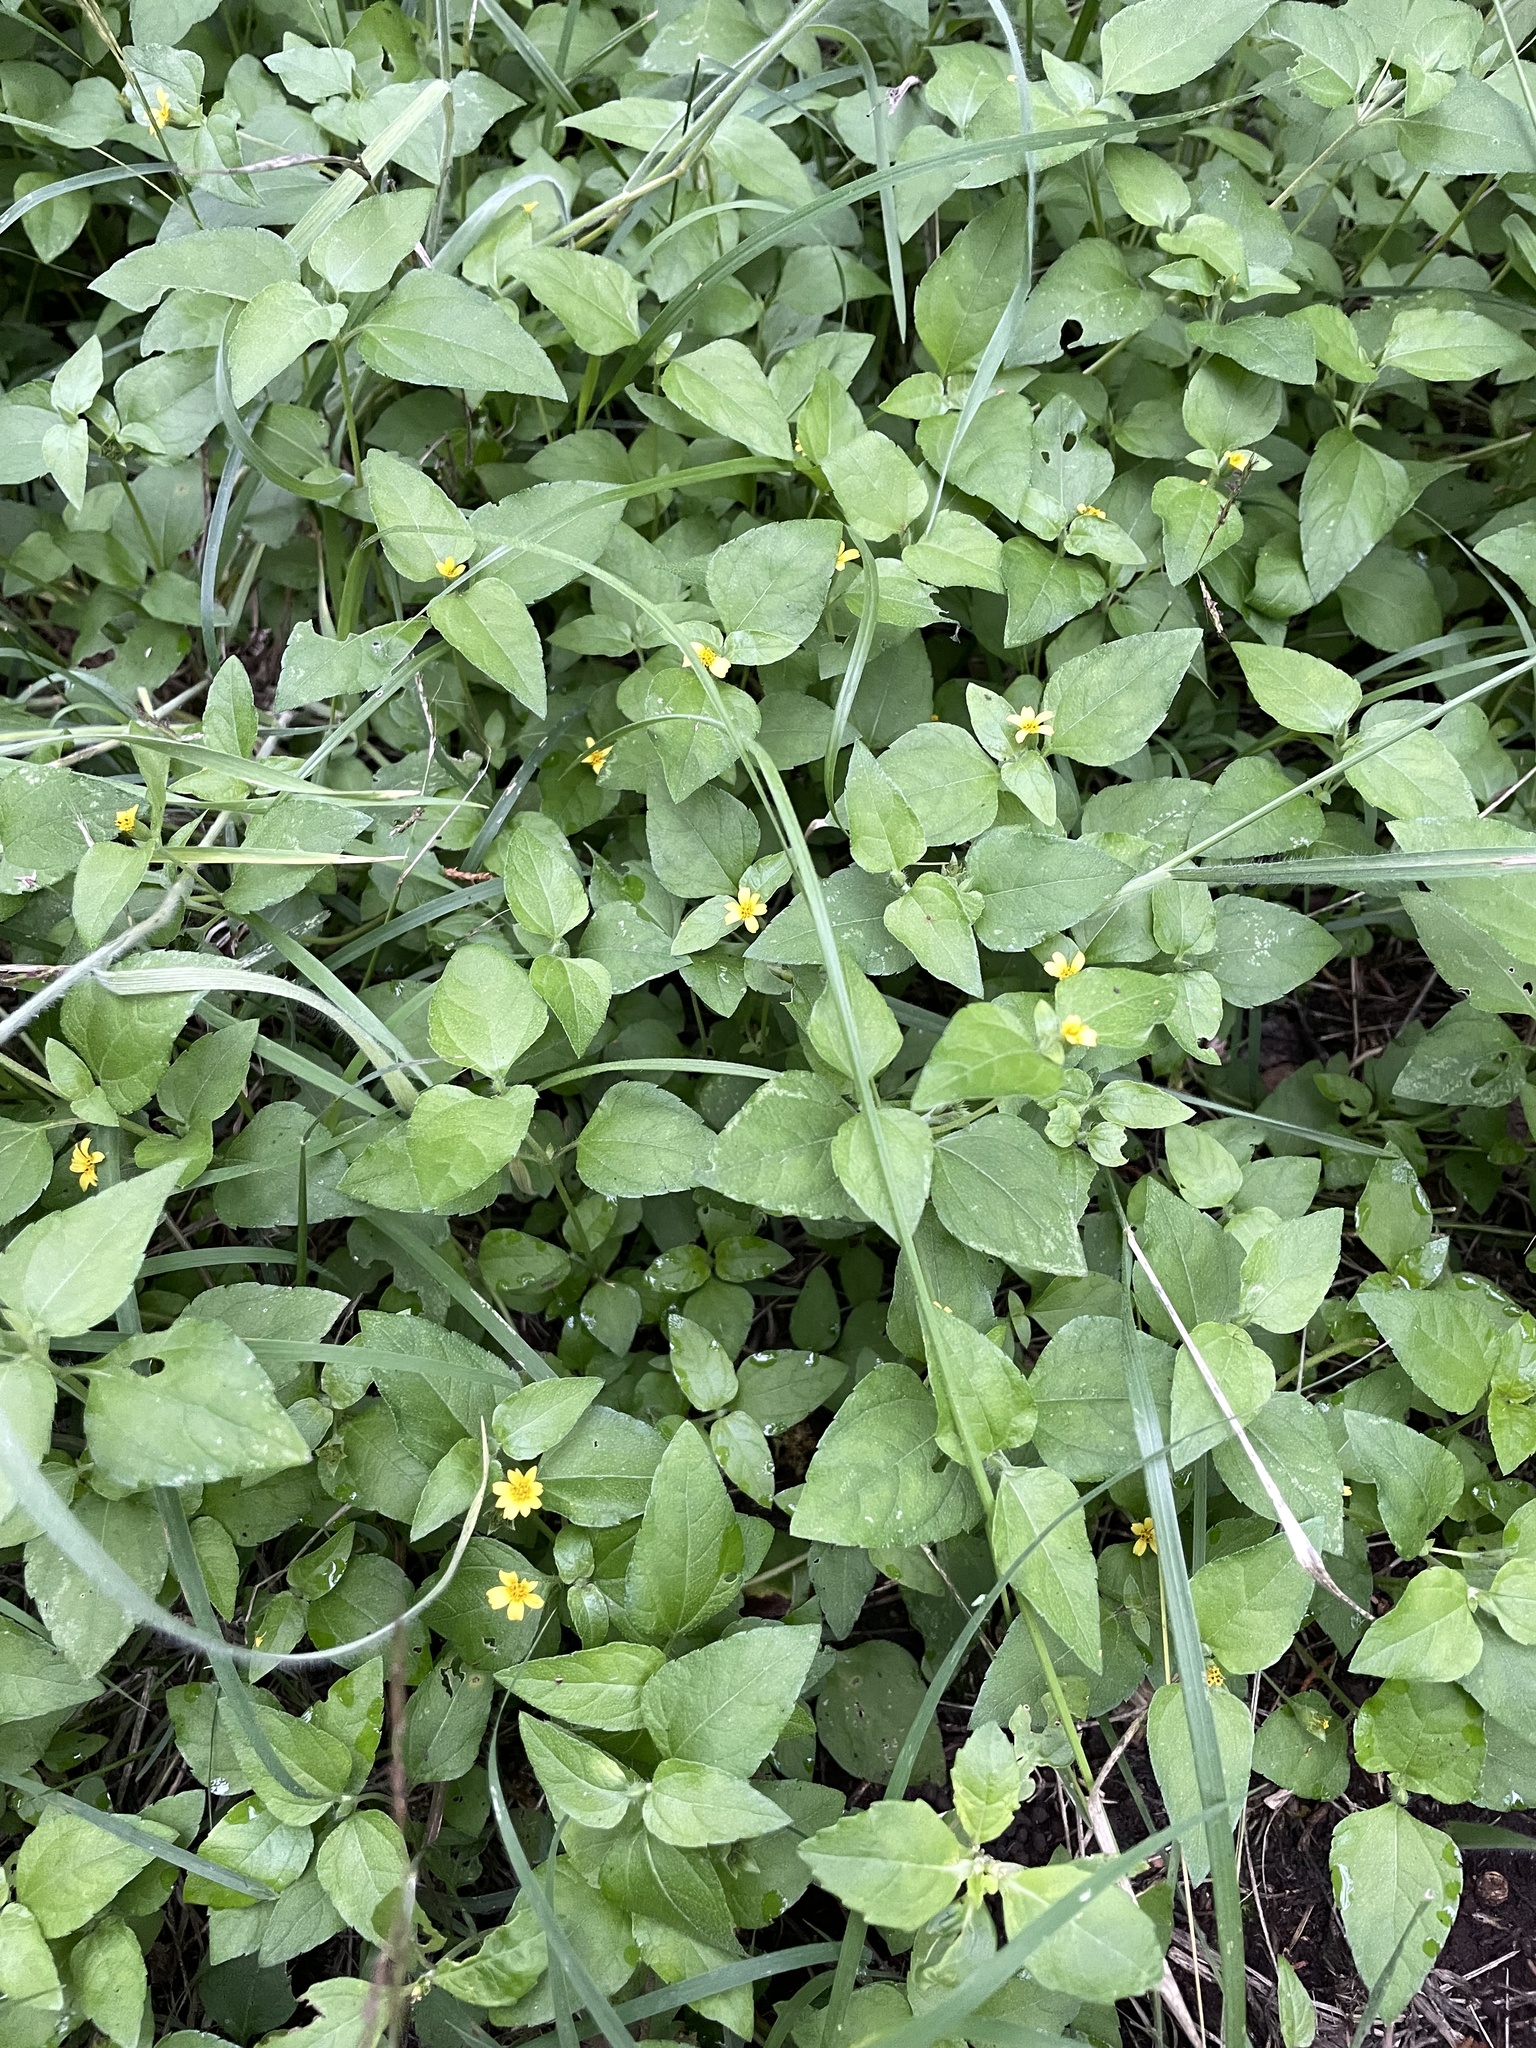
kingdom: Plantae
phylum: Tracheophyta
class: Magnoliopsida
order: Asterales
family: Asteraceae
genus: Calyptocarpus
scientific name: Calyptocarpus vialis
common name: Straggler daisy
